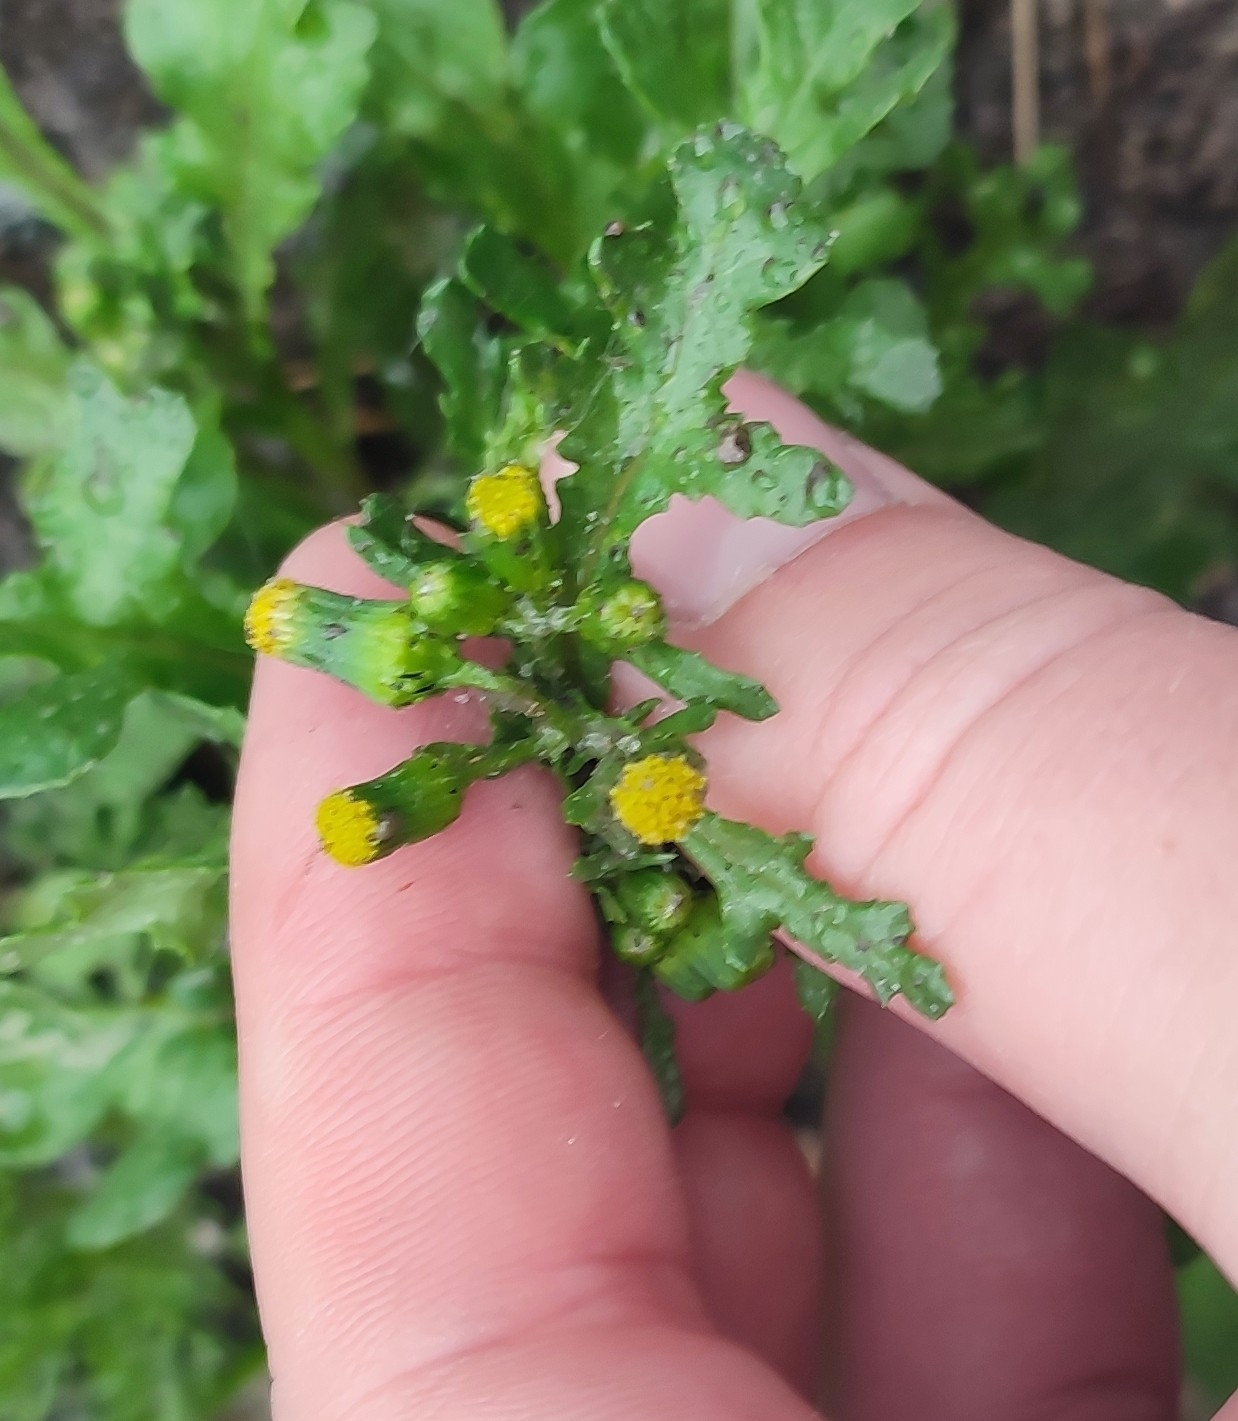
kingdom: Plantae
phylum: Tracheophyta
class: Magnoliopsida
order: Asterales
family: Asteraceae
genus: Senecio
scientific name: Senecio vulgaris
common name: Old-man-in-the-spring
